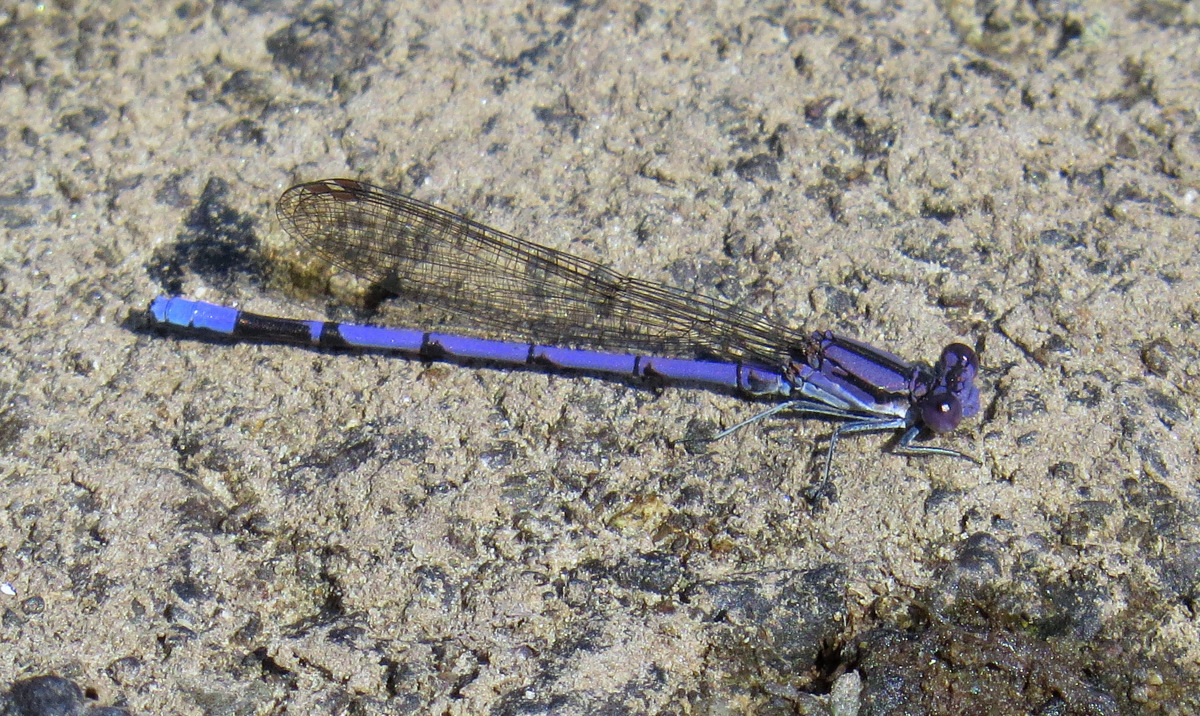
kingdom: Animalia
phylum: Arthropoda
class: Insecta
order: Odonata
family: Coenagrionidae
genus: Argia
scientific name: Argia fumipennis
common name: Variable dancer
